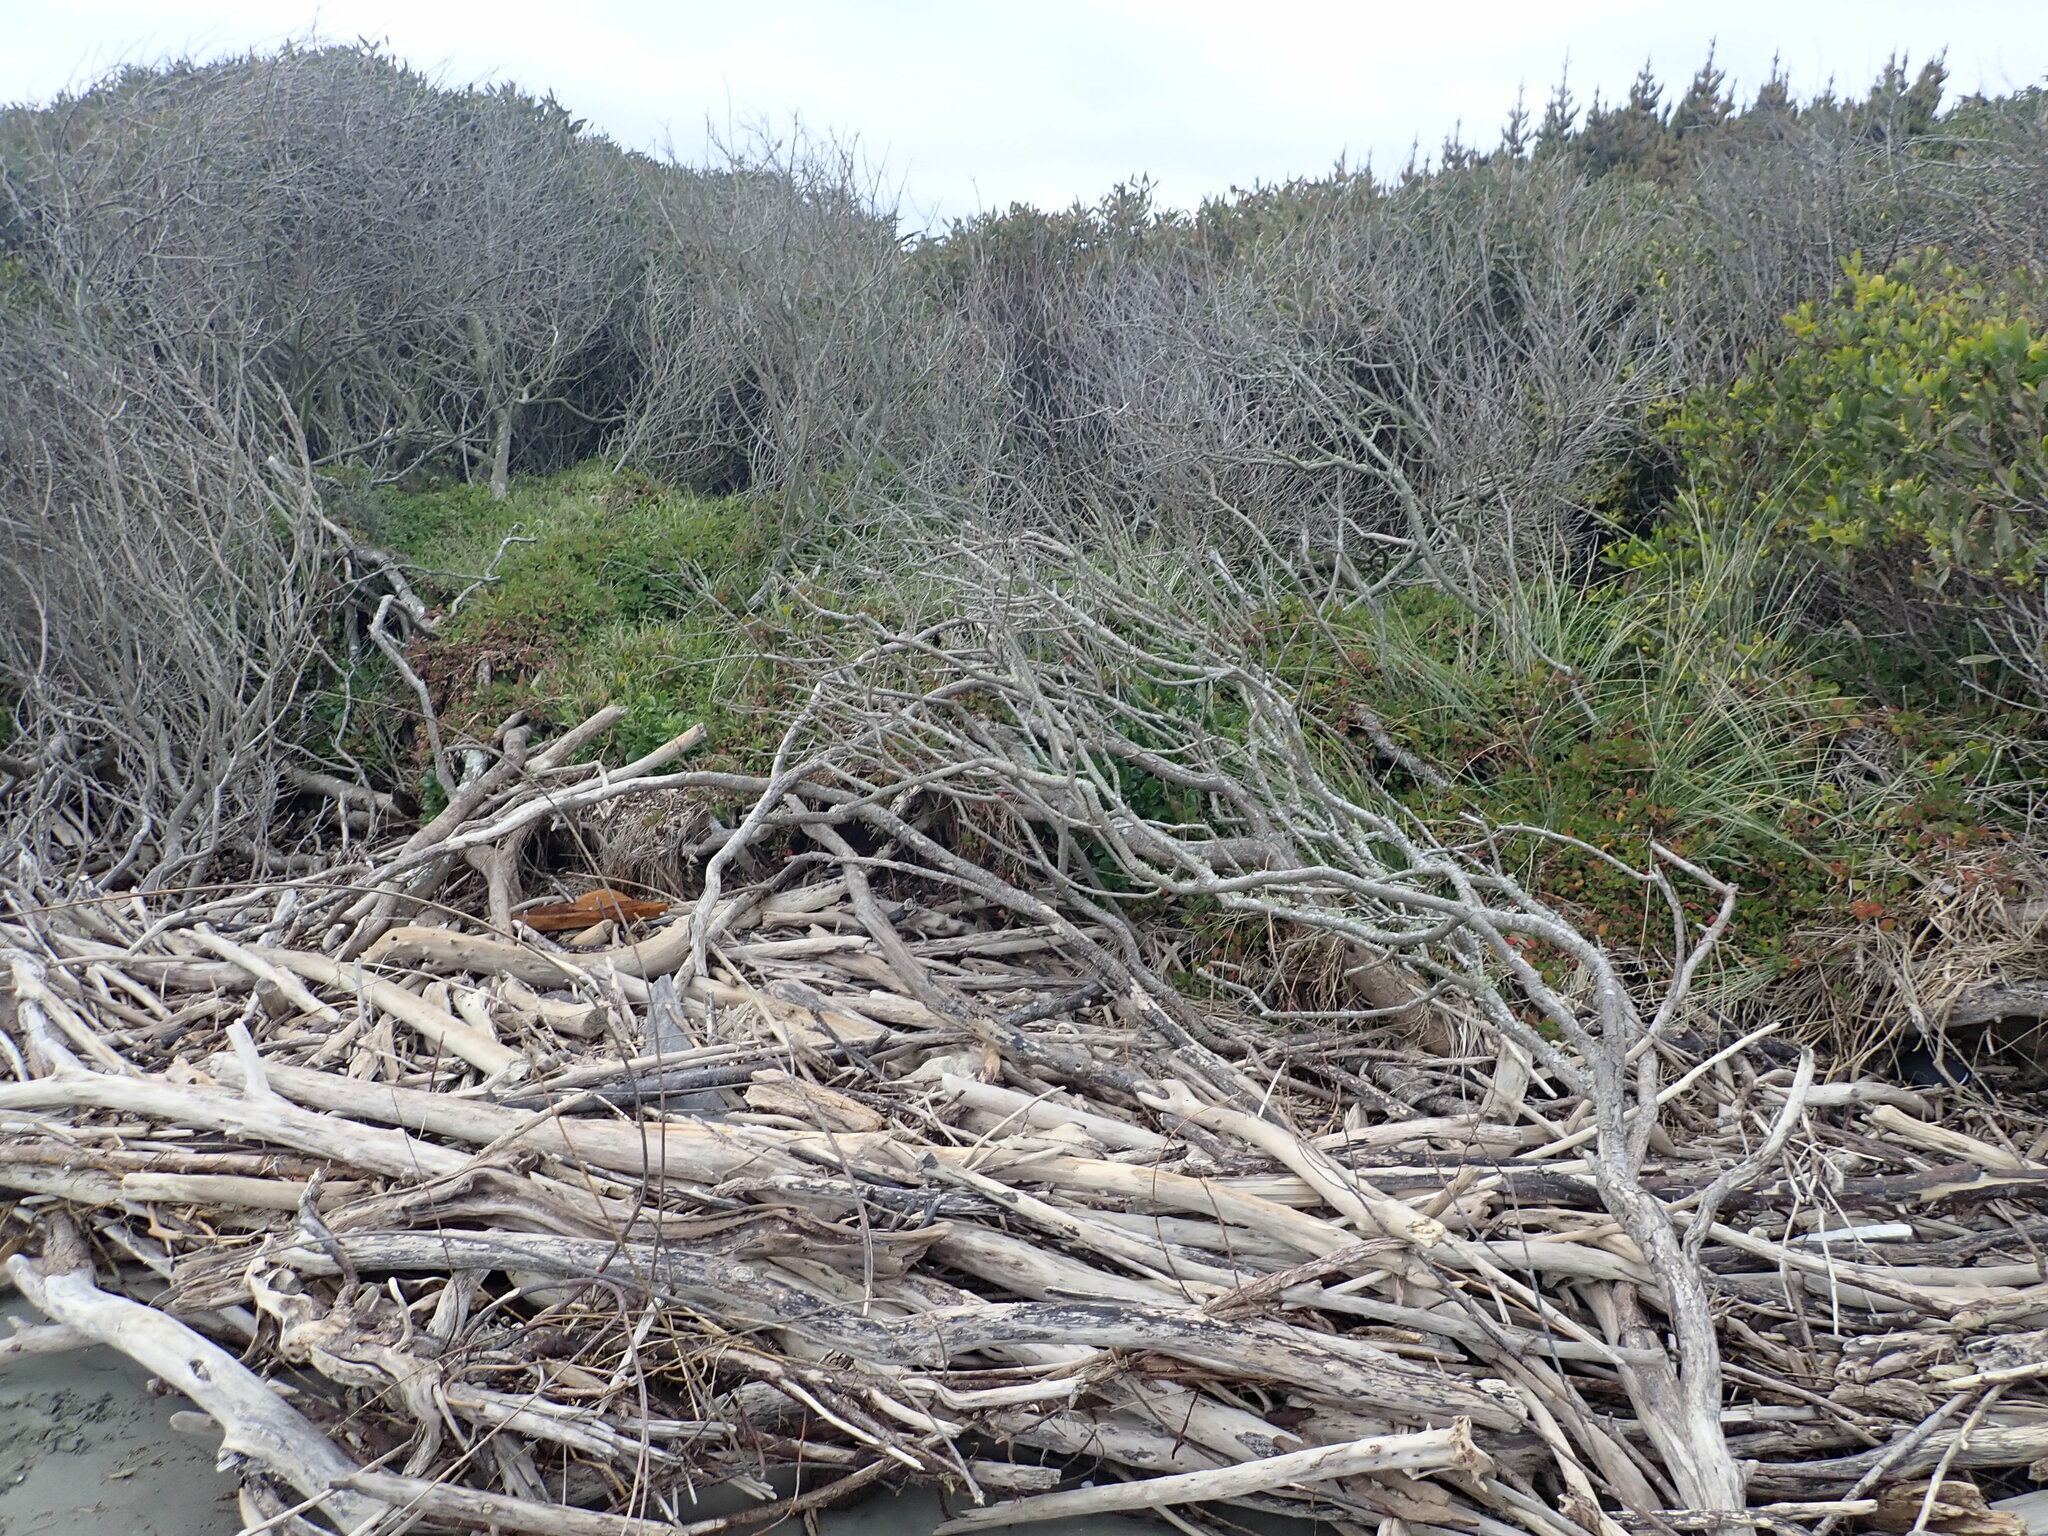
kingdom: Plantae
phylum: Tracheophyta
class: Magnoliopsida
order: Caryophyllales
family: Aizoaceae
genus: Tetragonia
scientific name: Tetragonia implexicoma
